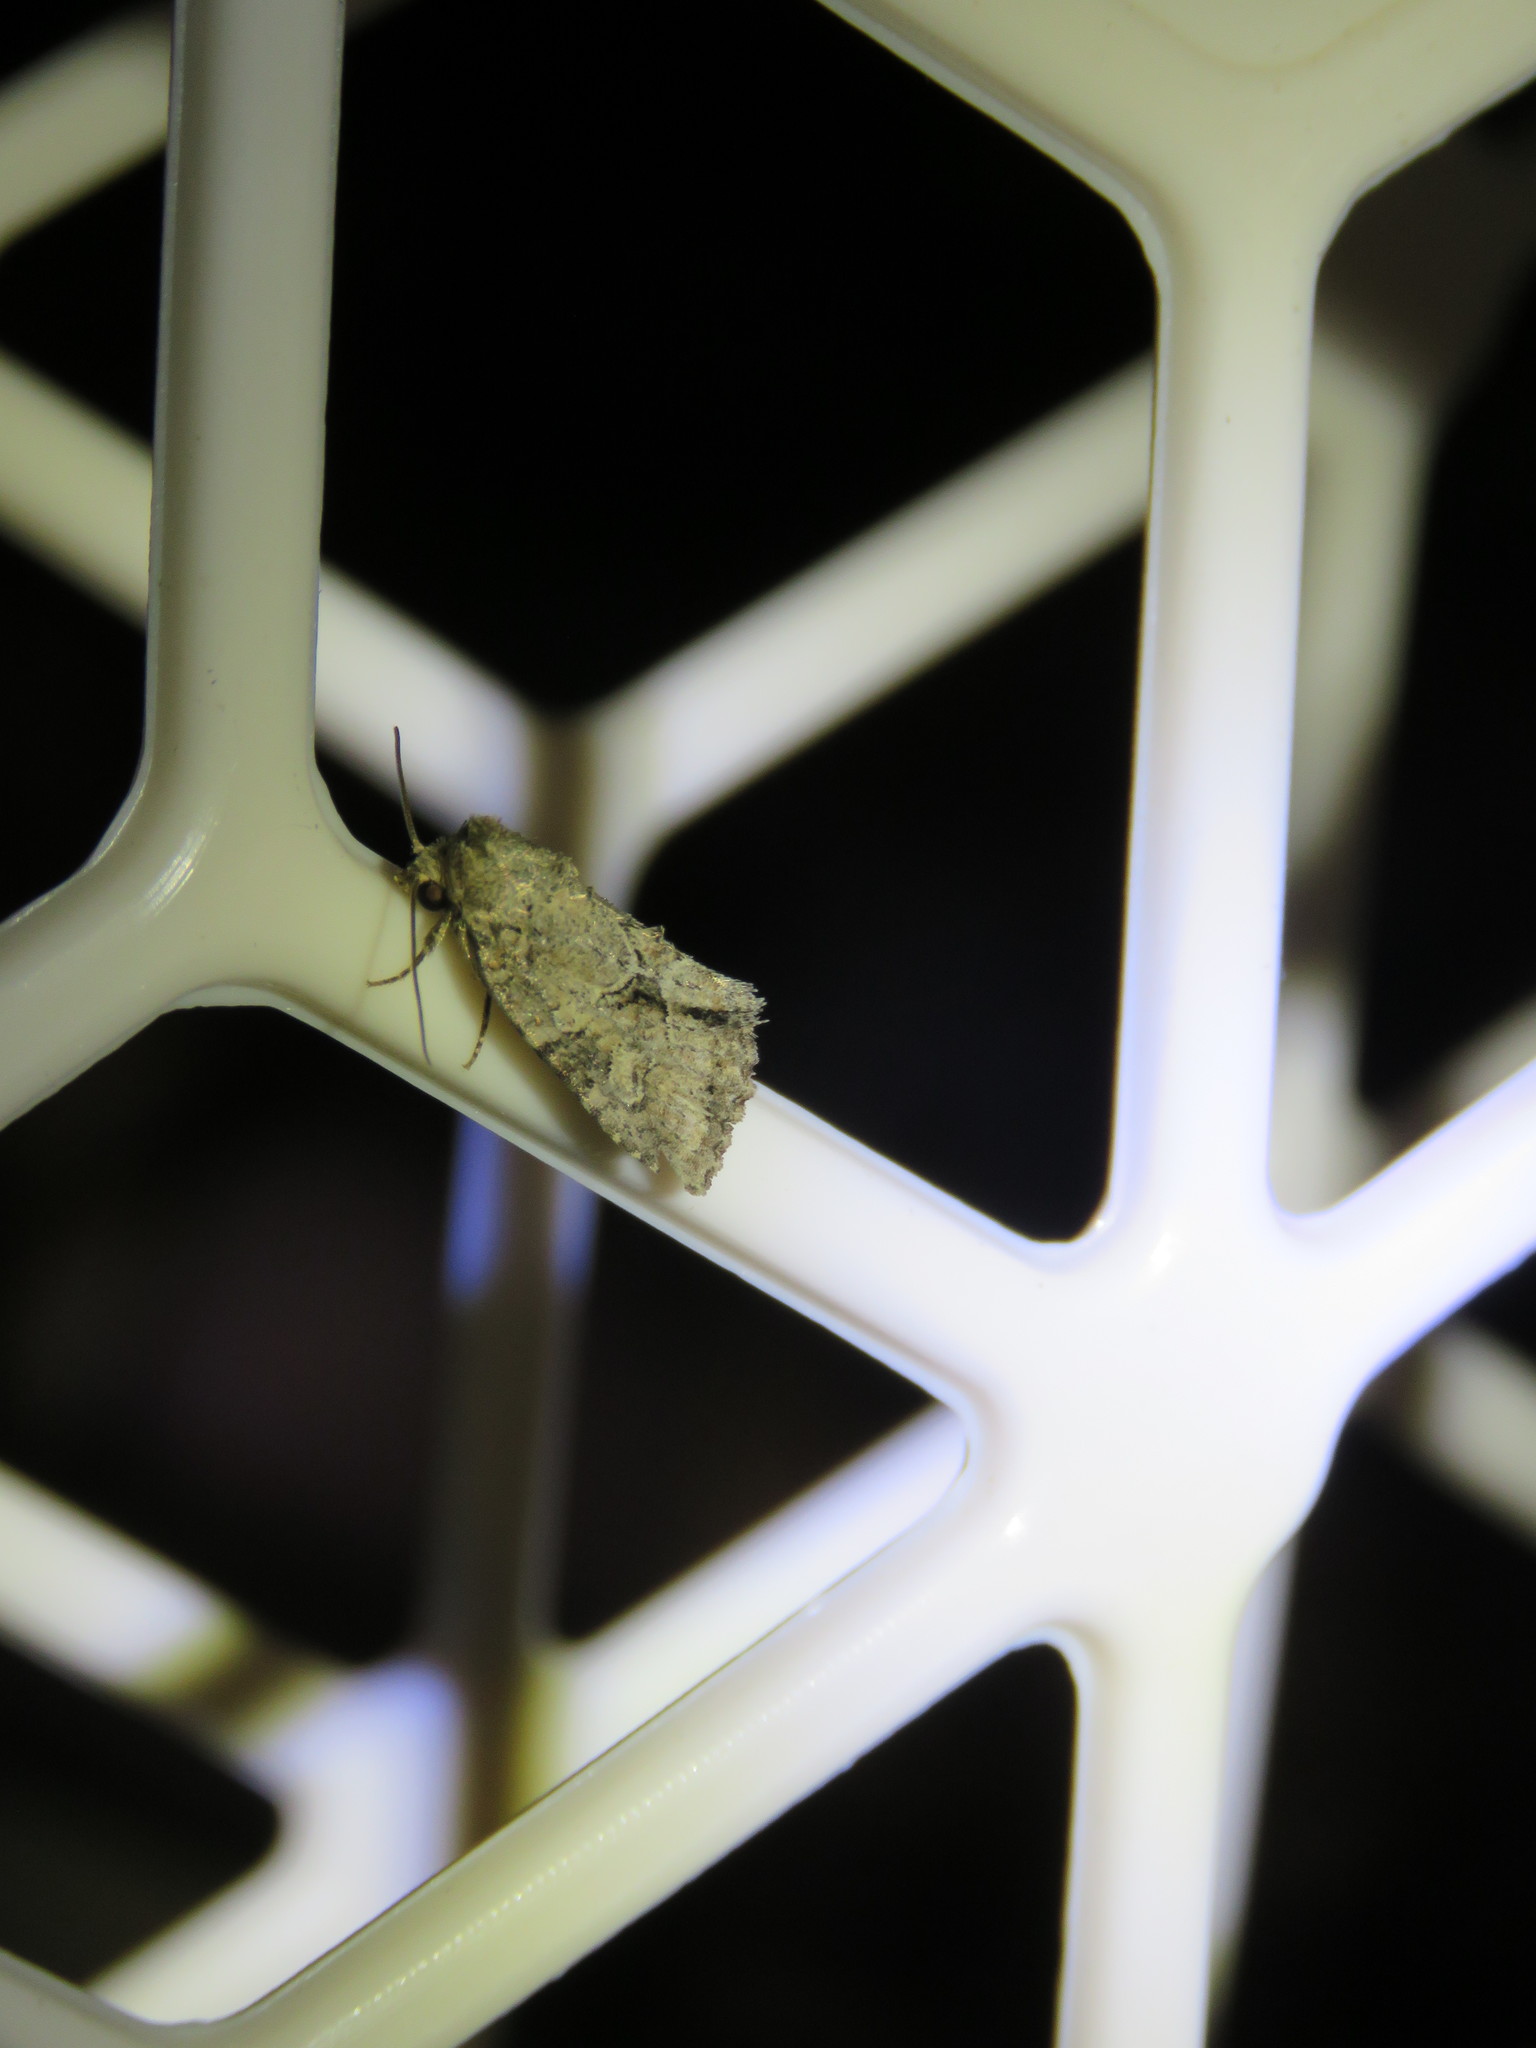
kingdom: Animalia
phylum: Arthropoda
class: Insecta
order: Lepidoptera
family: Noctuidae
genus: Neoligia
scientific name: Neoligia exhausta
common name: Exhausted brocade
